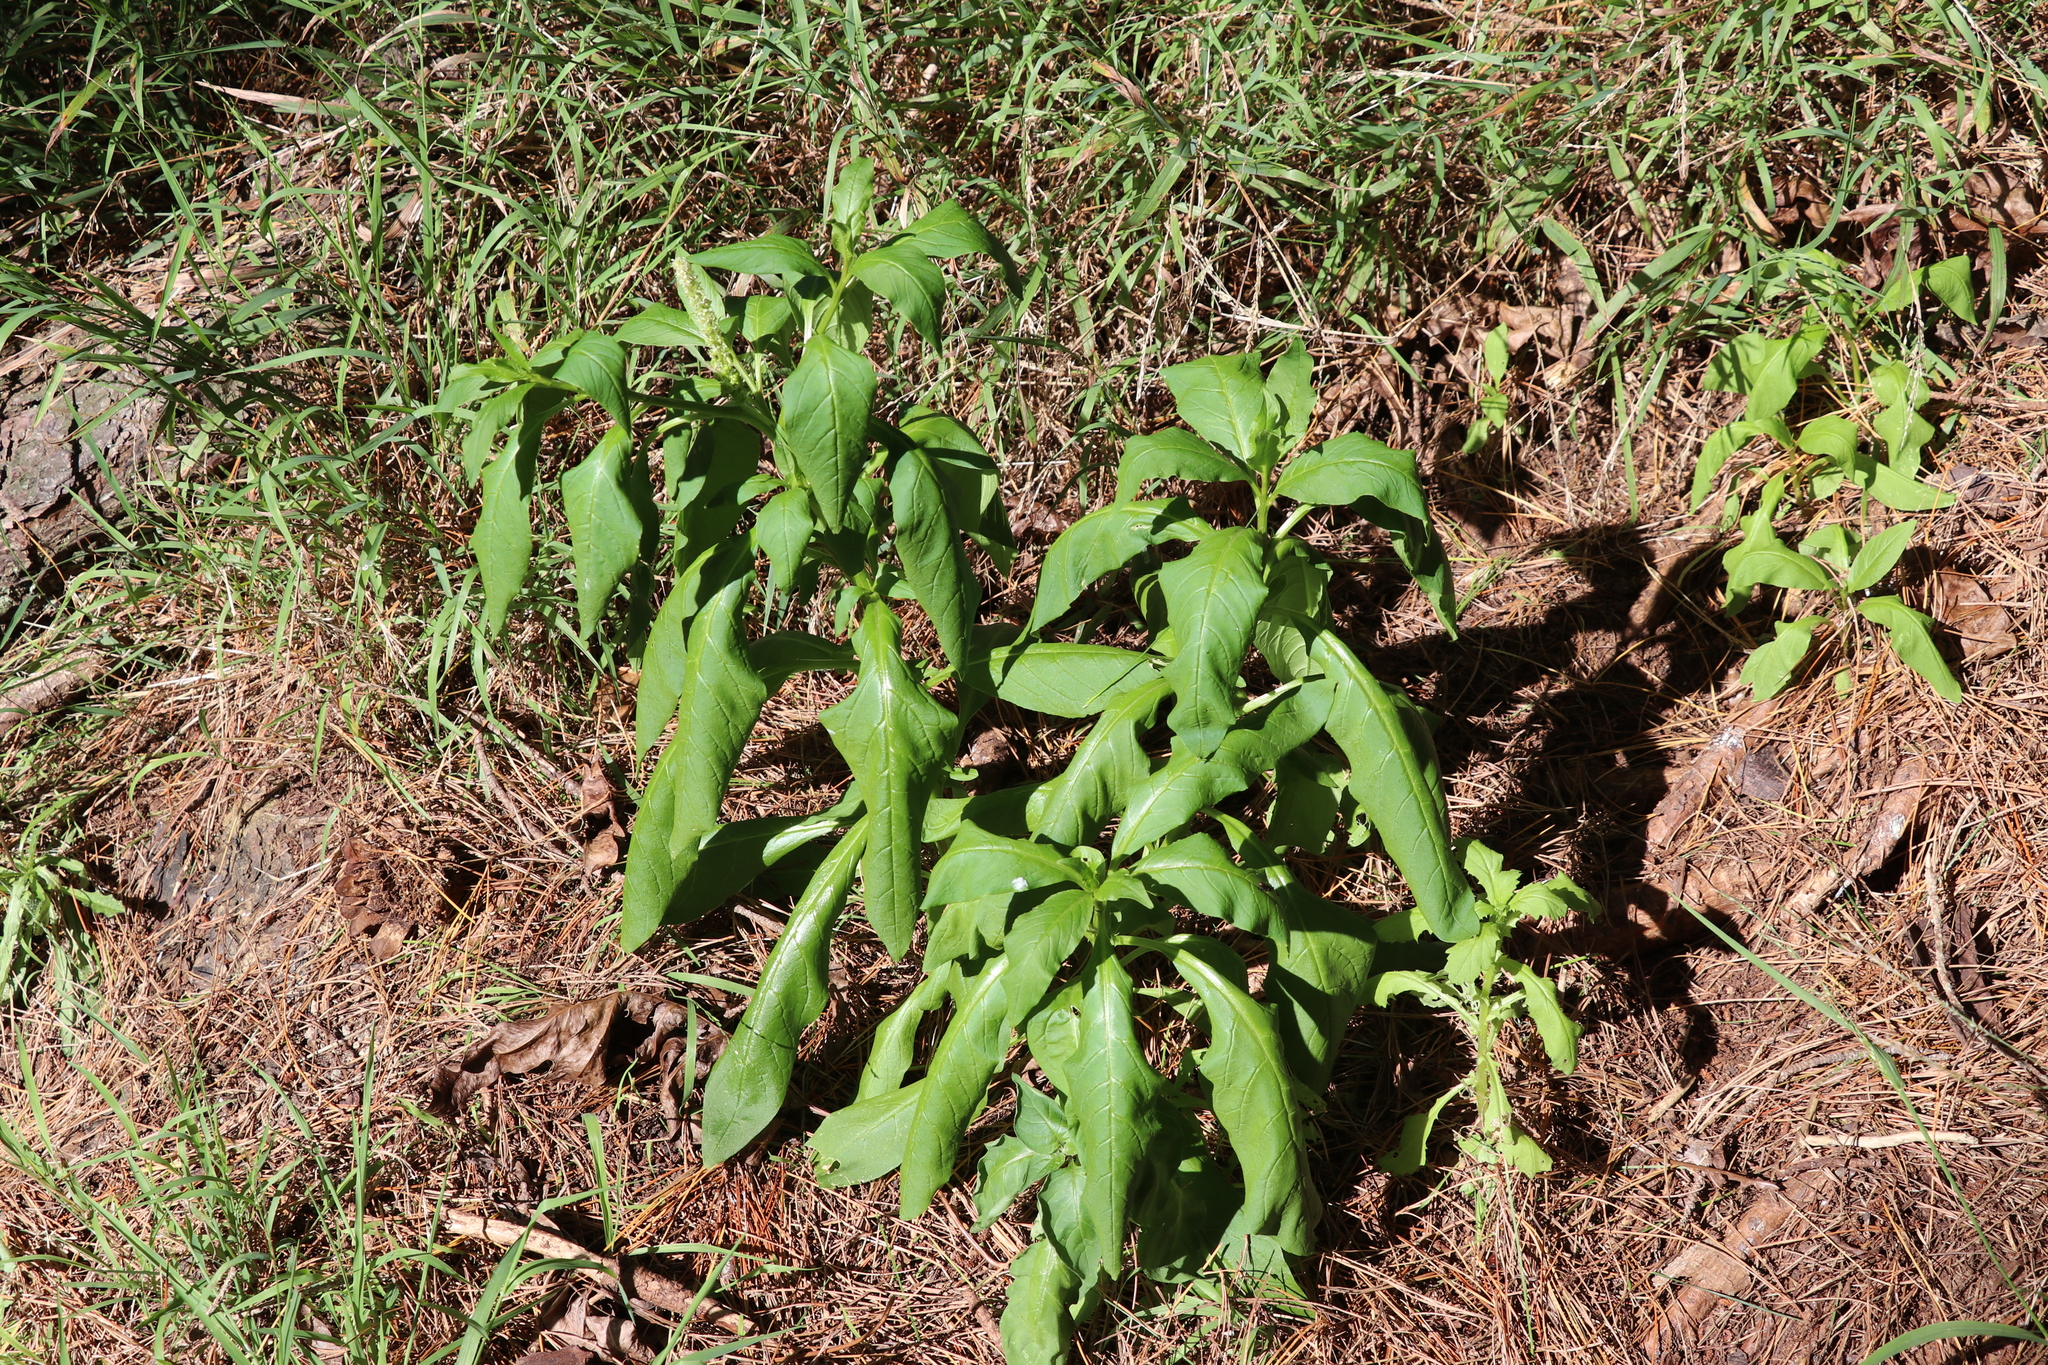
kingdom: Plantae
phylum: Tracheophyta
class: Magnoliopsida
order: Caryophyllales
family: Phytolaccaceae
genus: Phytolacca
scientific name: Phytolacca icosandra
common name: Button pokeweed
